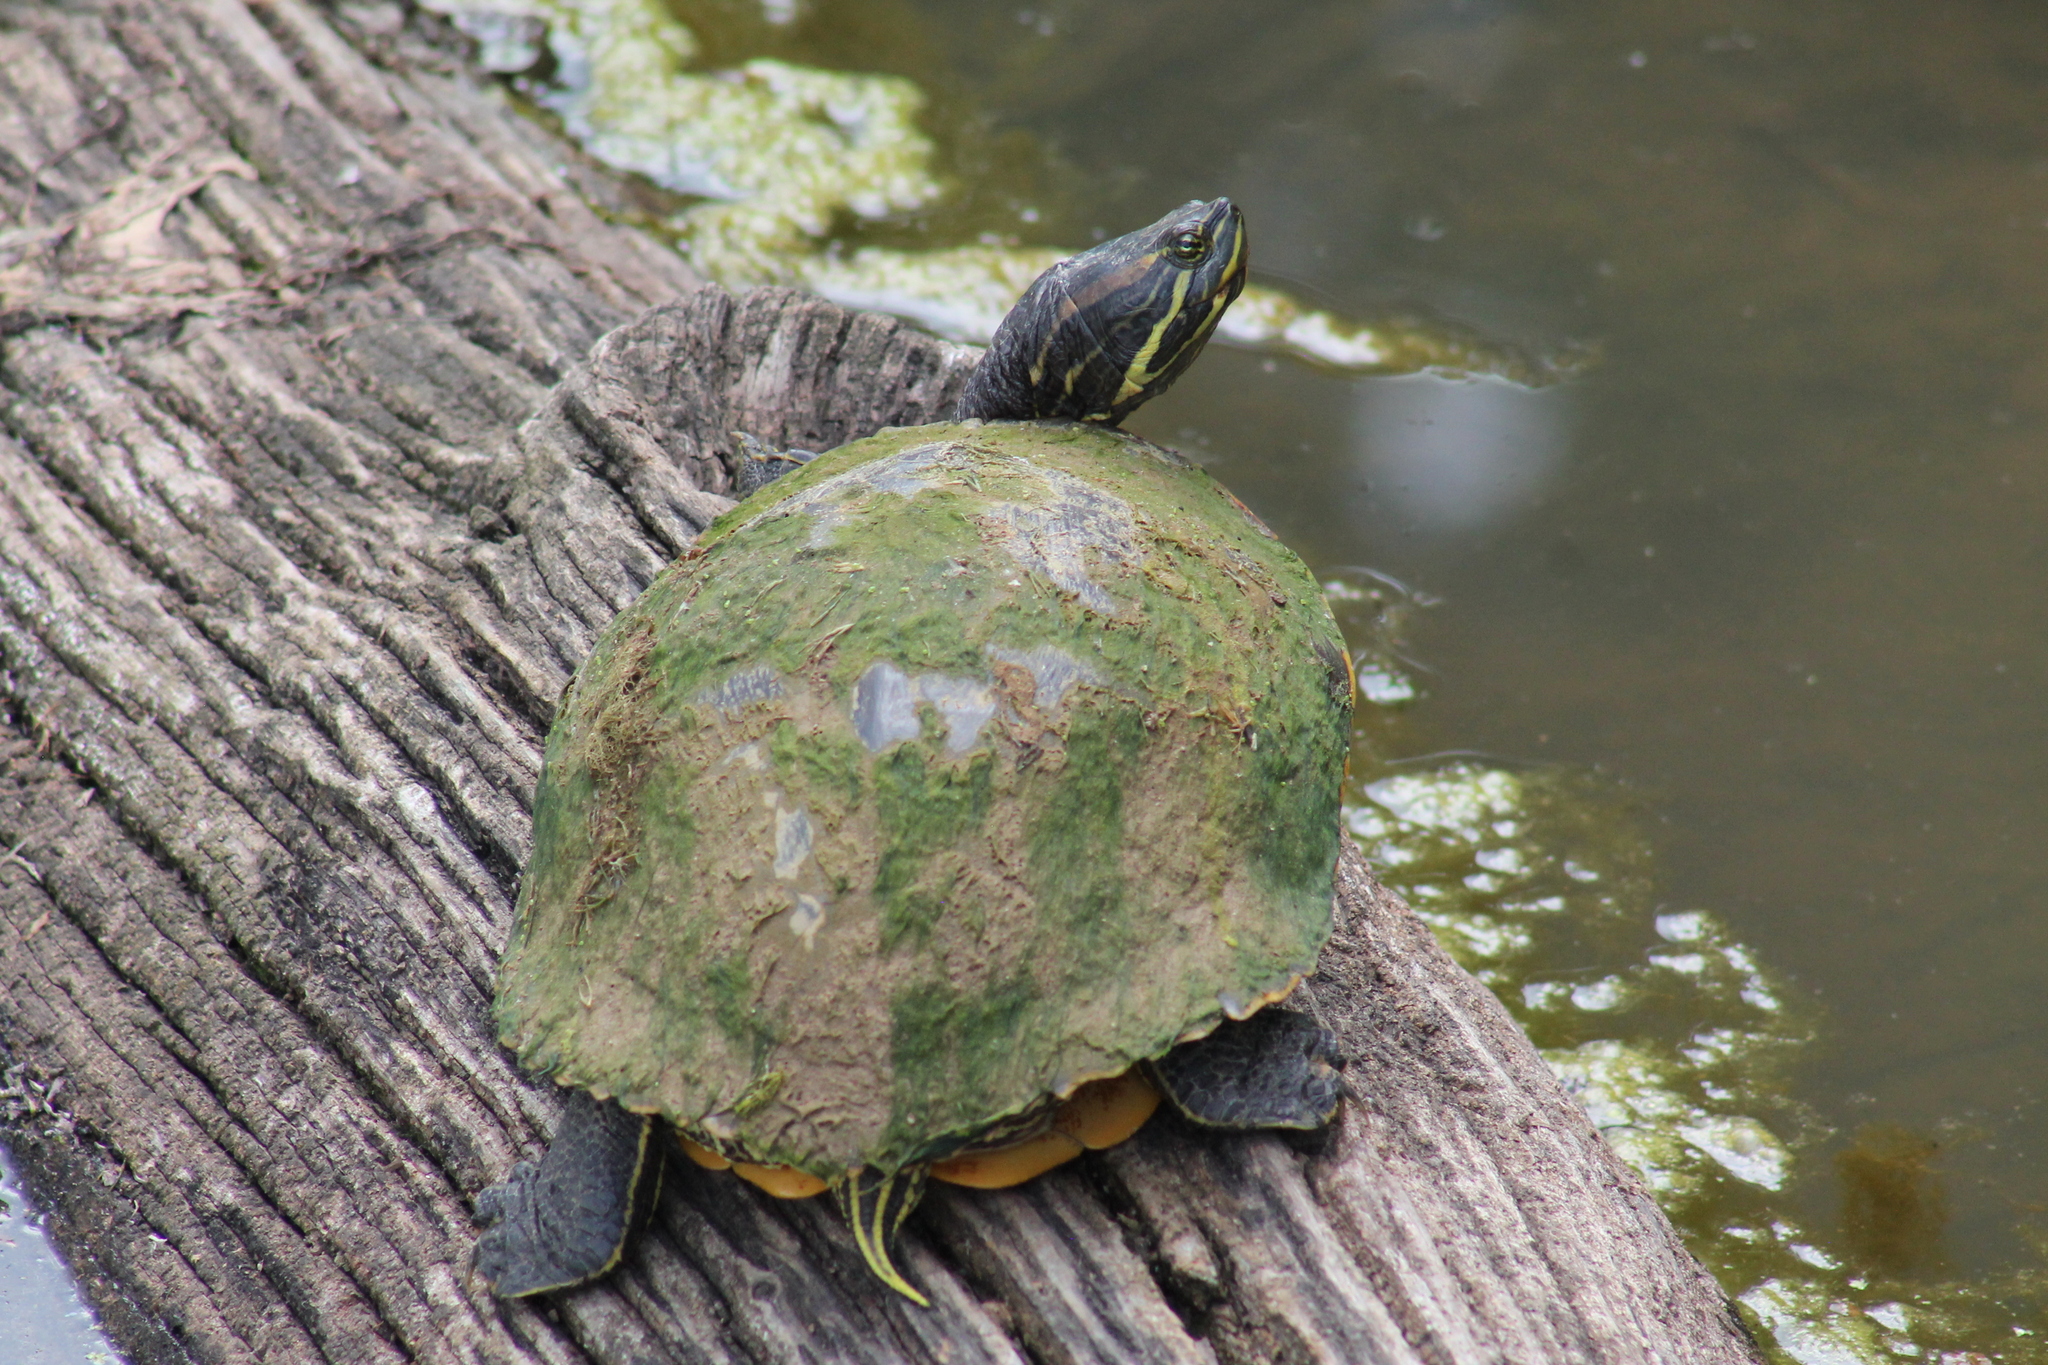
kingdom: Animalia
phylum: Chordata
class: Testudines
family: Emydidae
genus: Trachemys
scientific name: Trachemys scripta
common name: Slider
